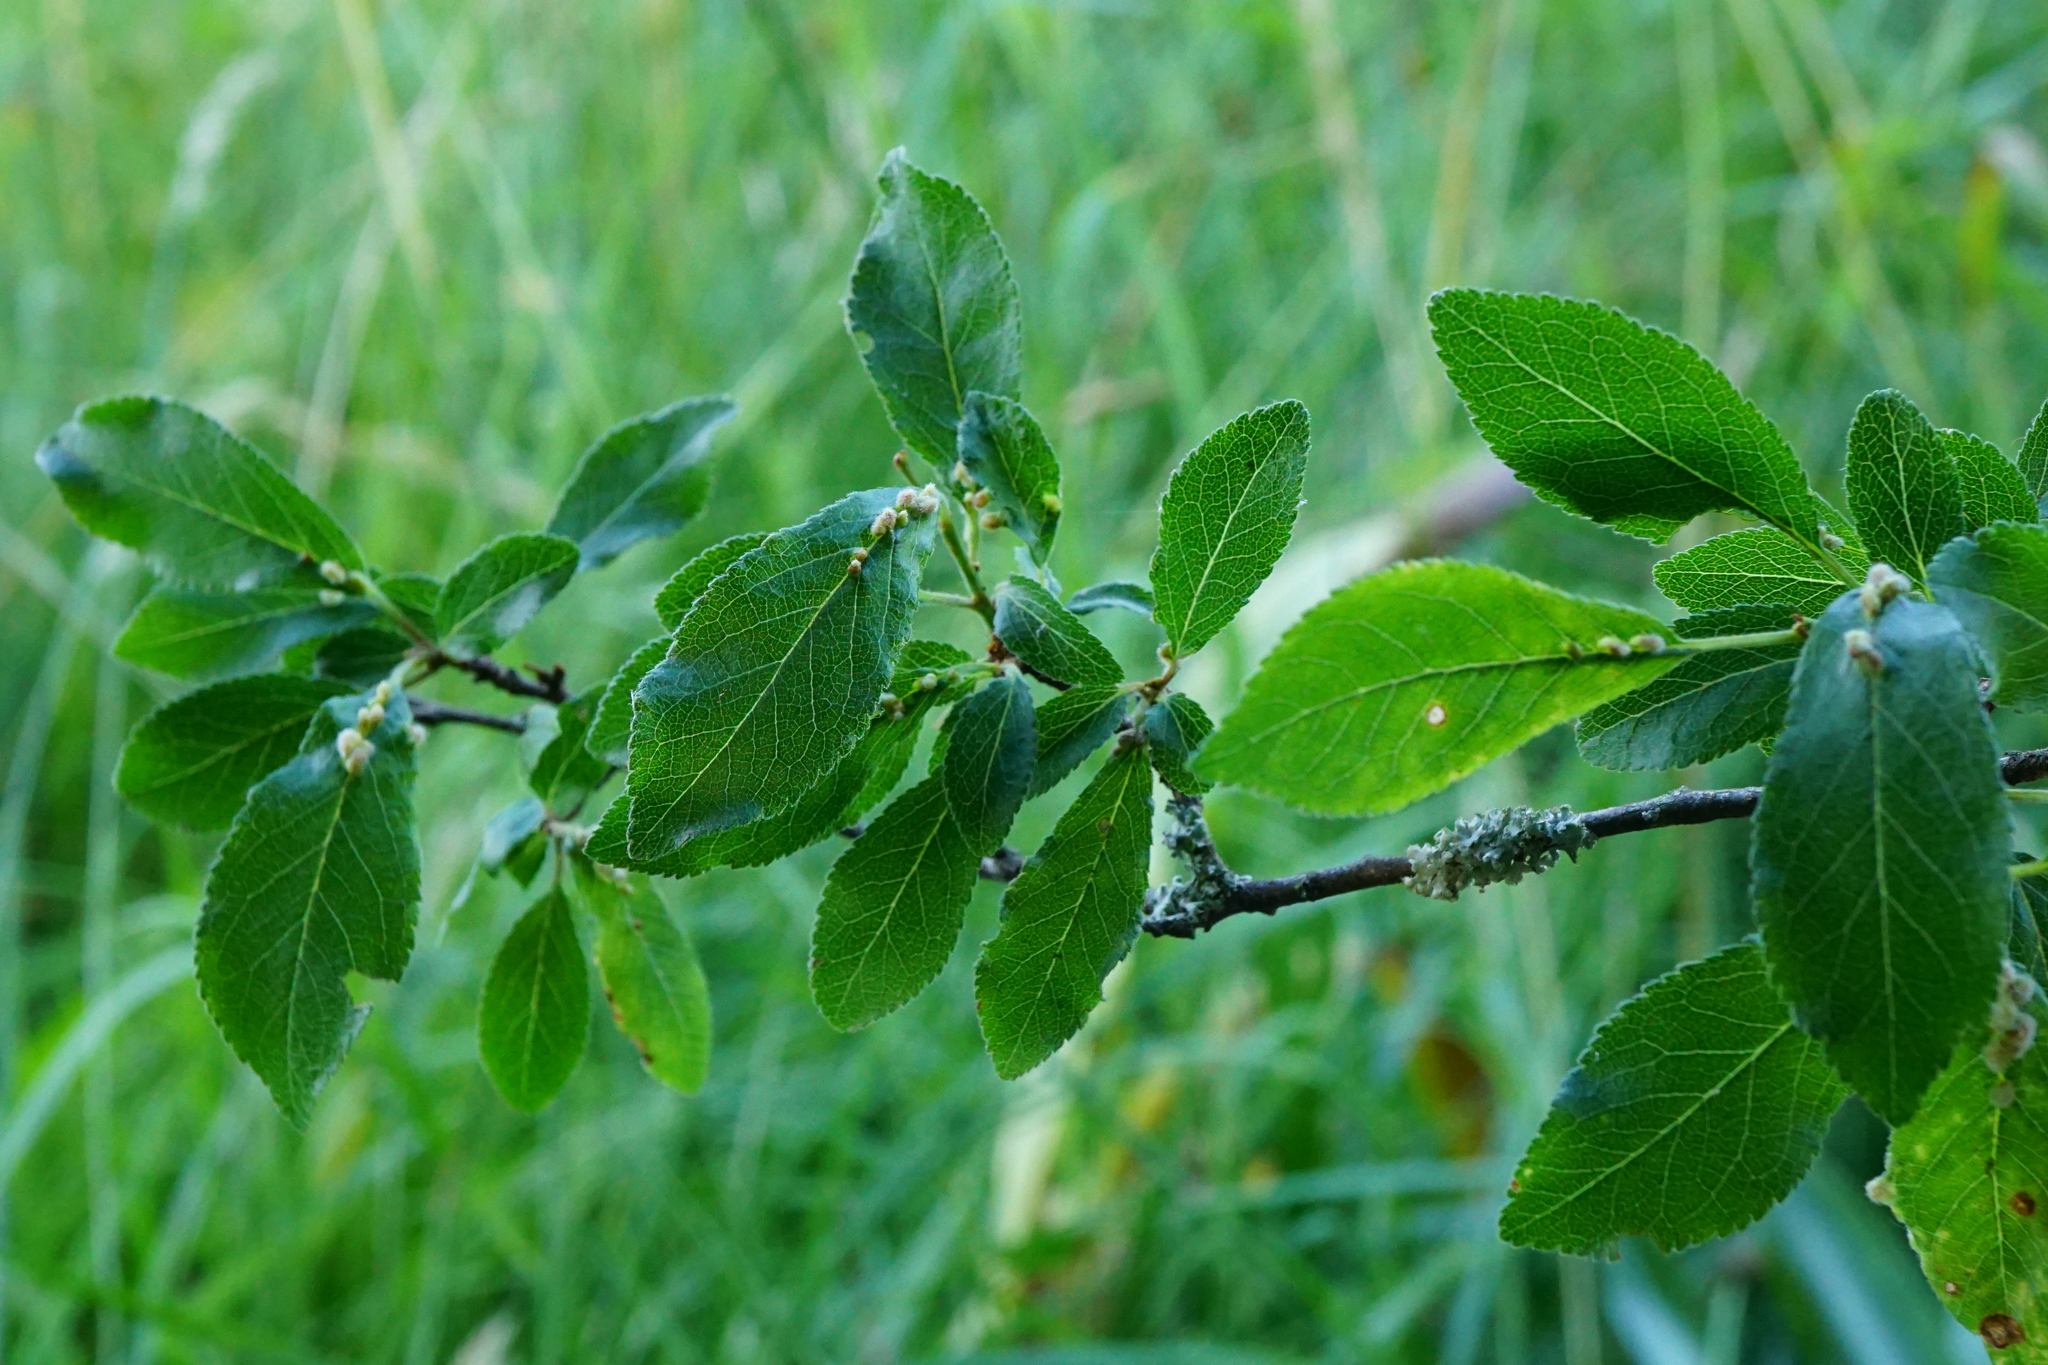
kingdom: Plantae
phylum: Tracheophyta
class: Magnoliopsida
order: Rosales
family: Rosaceae
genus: Prunus
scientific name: Prunus spinosa
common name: Blackthorn
